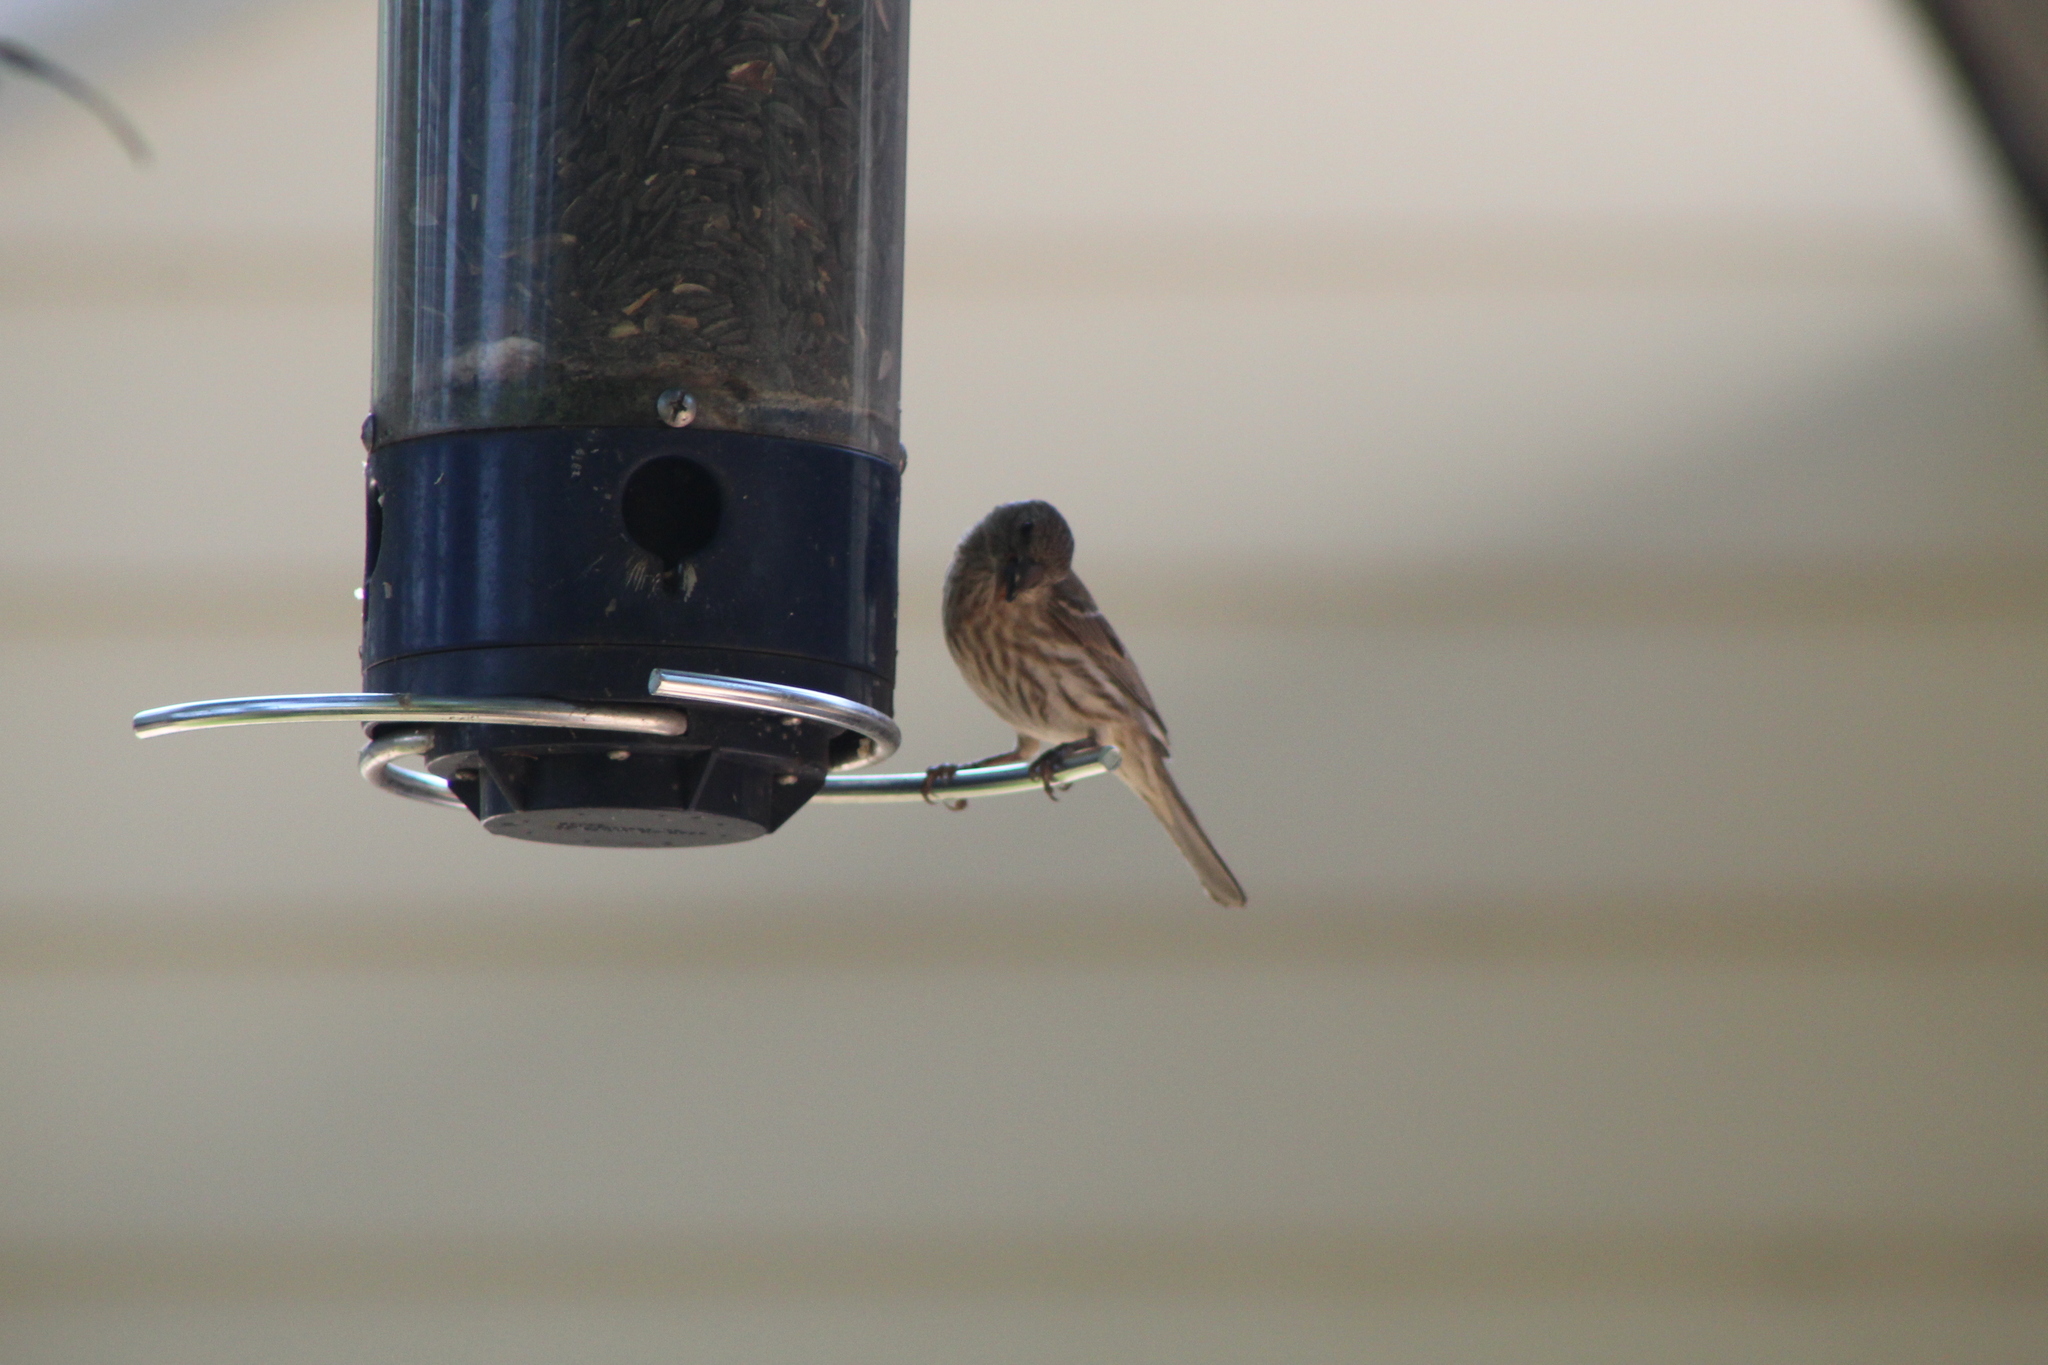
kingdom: Animalia
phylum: Chordata
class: Aves
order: Passeriformes
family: Fringillidae
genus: Haemorhous
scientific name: Haemorhous mexicanus
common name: House finch
